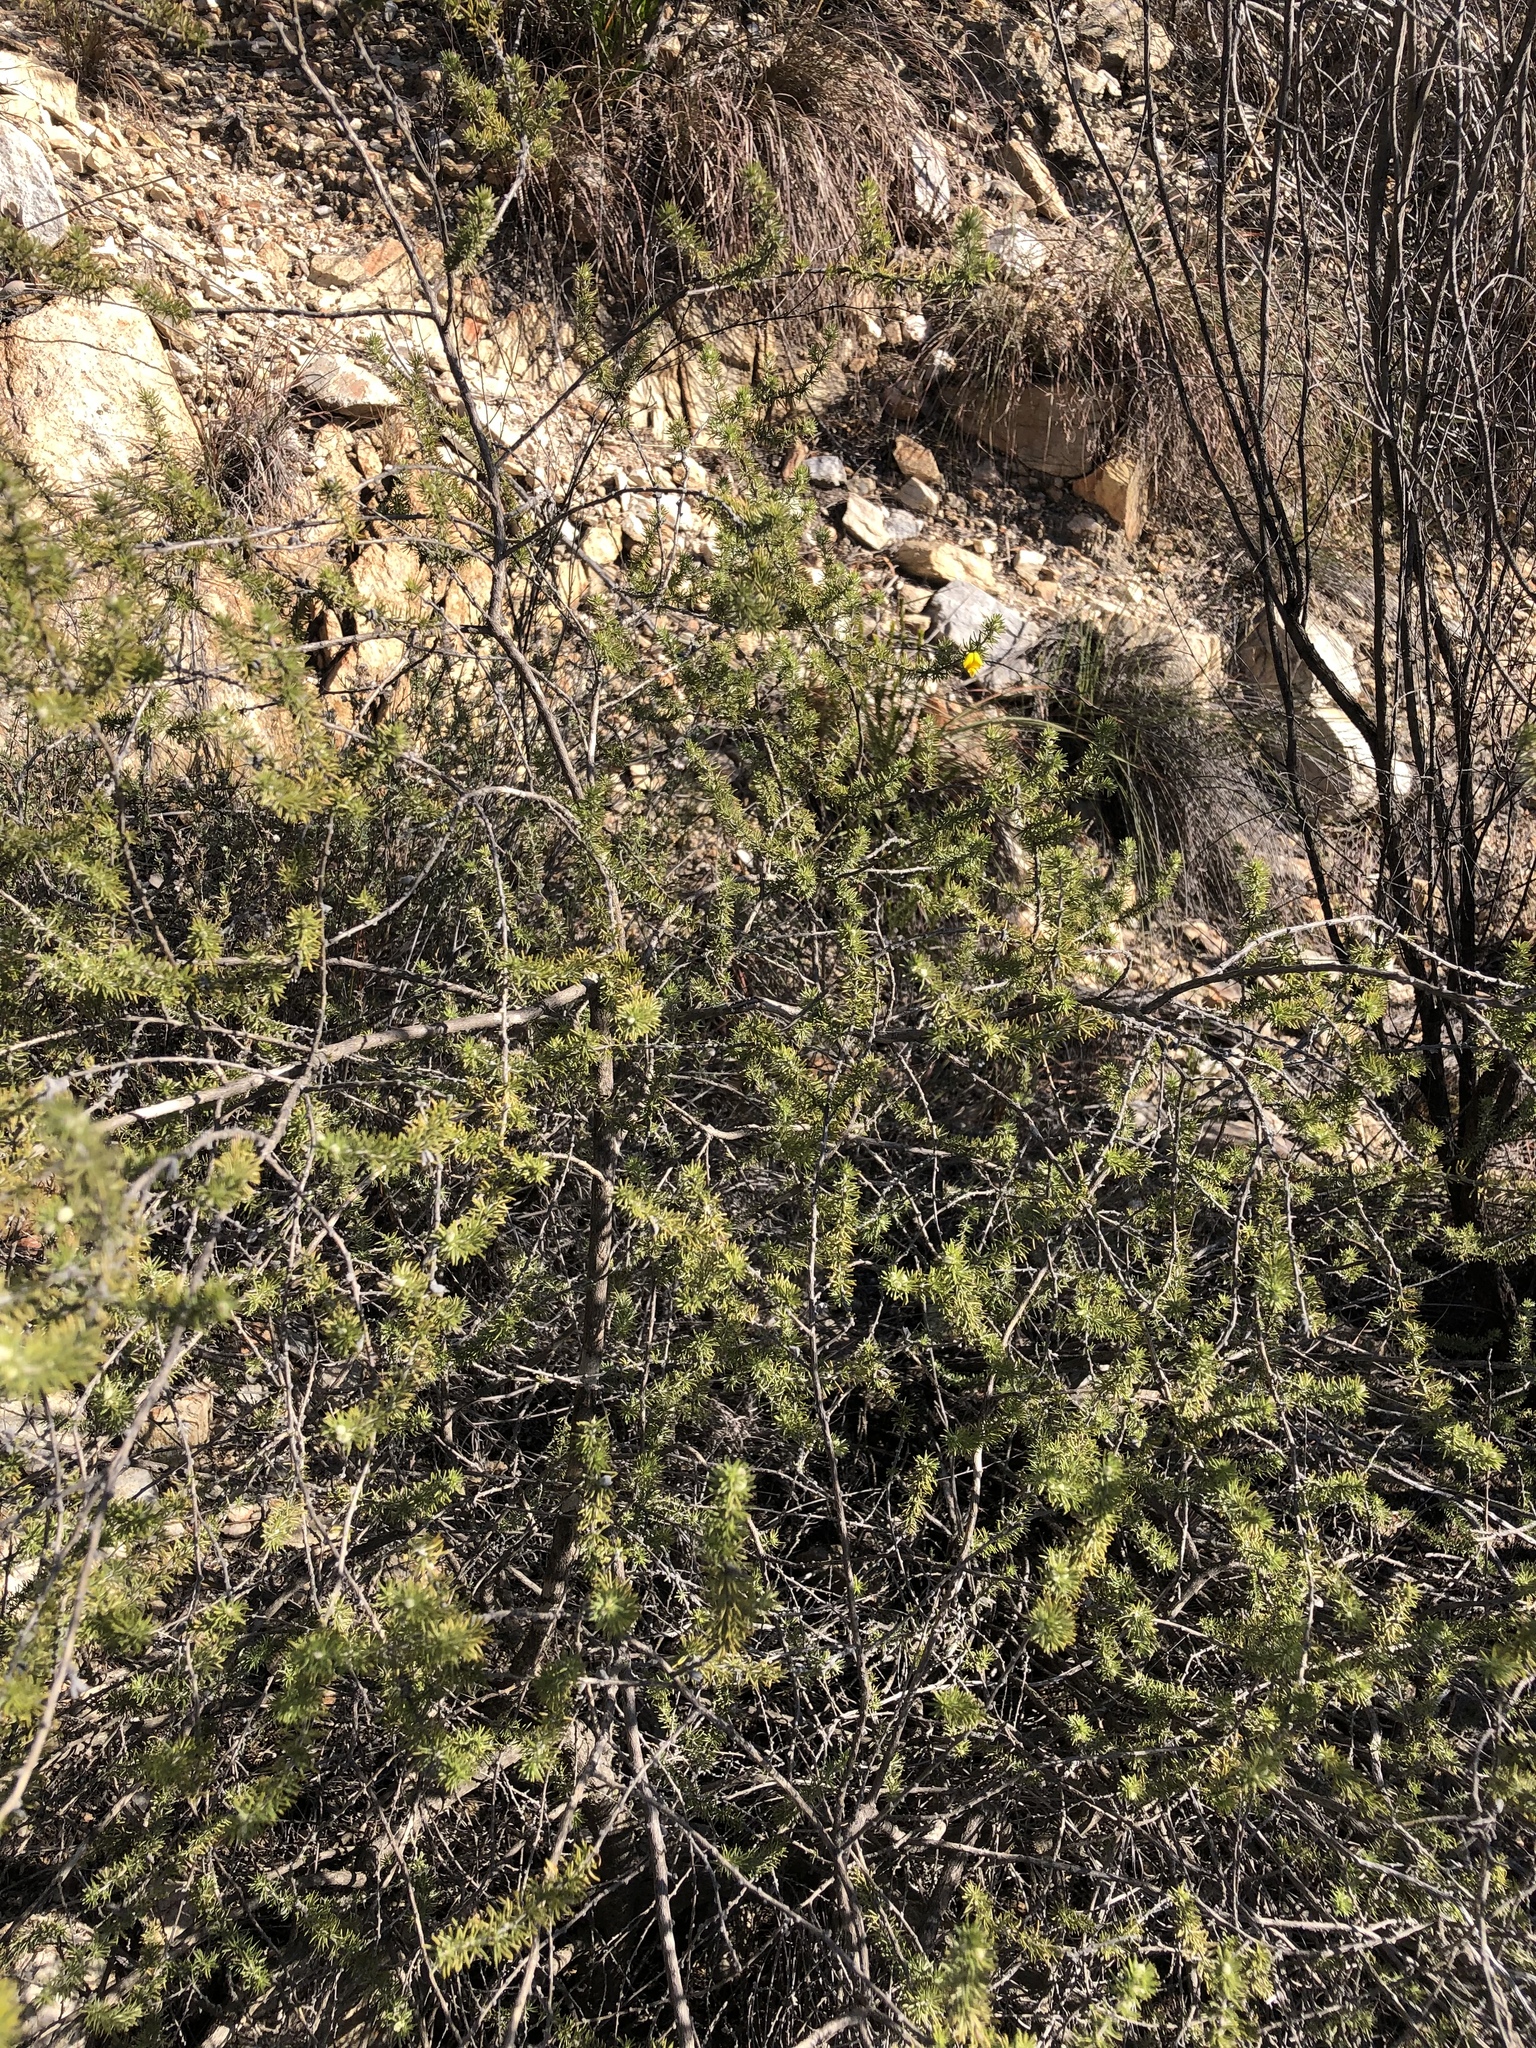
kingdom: Plantae
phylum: Tracheophyta
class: Magnoliopsida
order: Fabales
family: Fabaceae
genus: Aspalathus
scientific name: Aspalathus kougaensis
